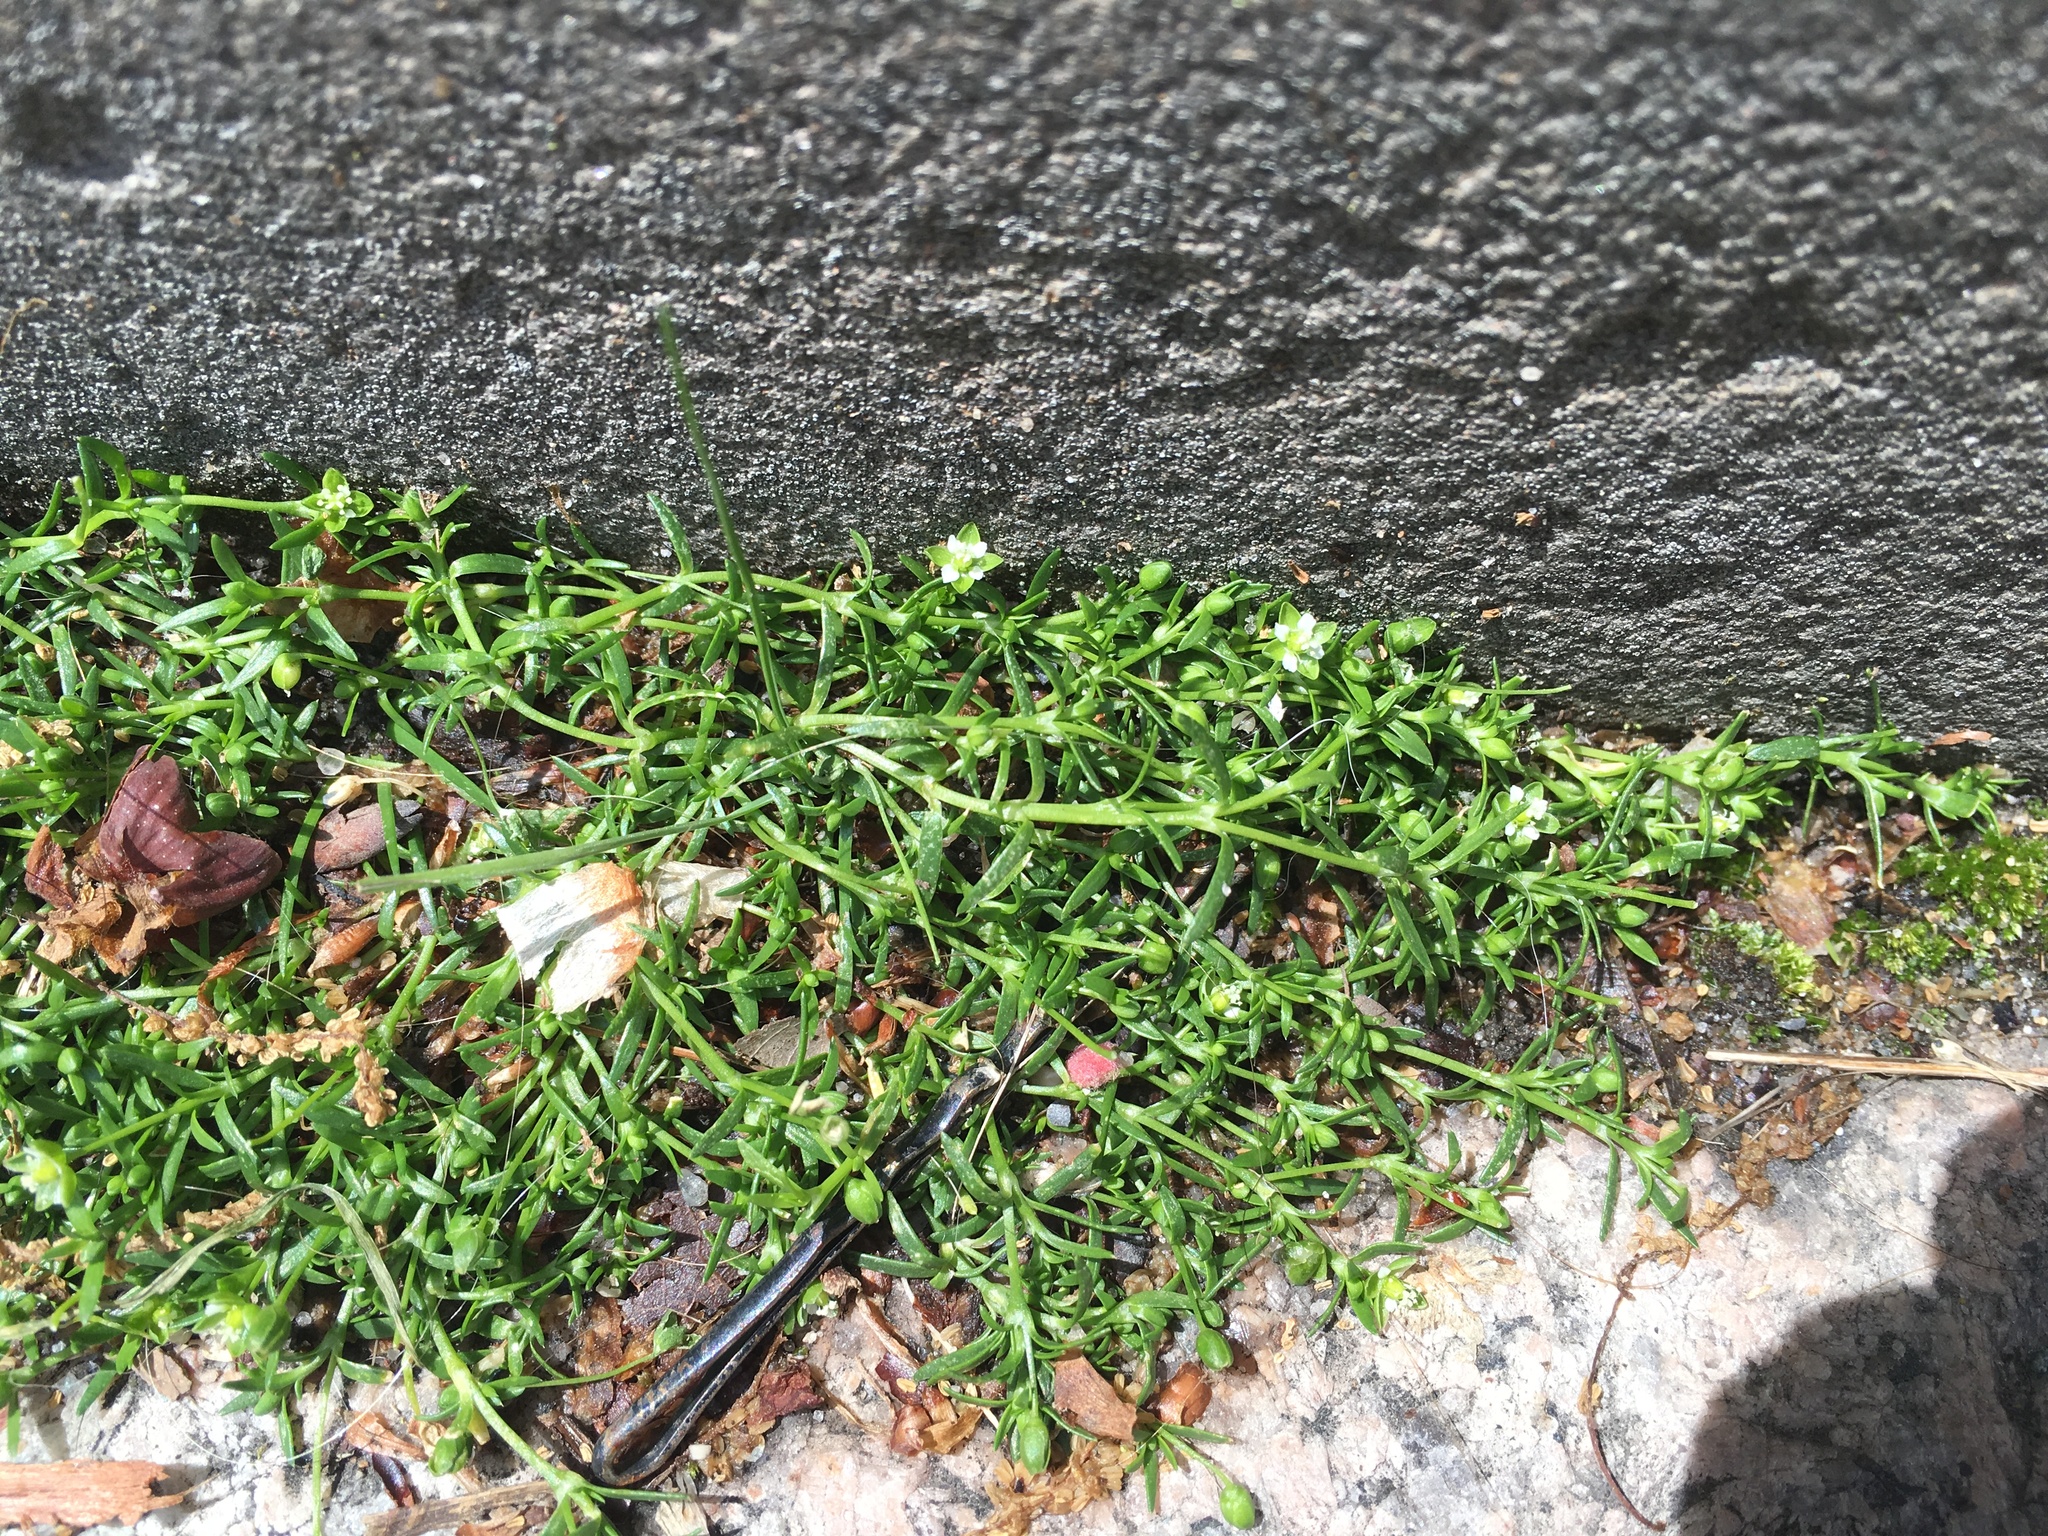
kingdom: Plantae
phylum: Tracheophyta
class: Magnoliopsida
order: Caryophyllales
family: Caryophyllaceae
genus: Sagina
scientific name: Sagina procumbens
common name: Procumbent pearlwort
